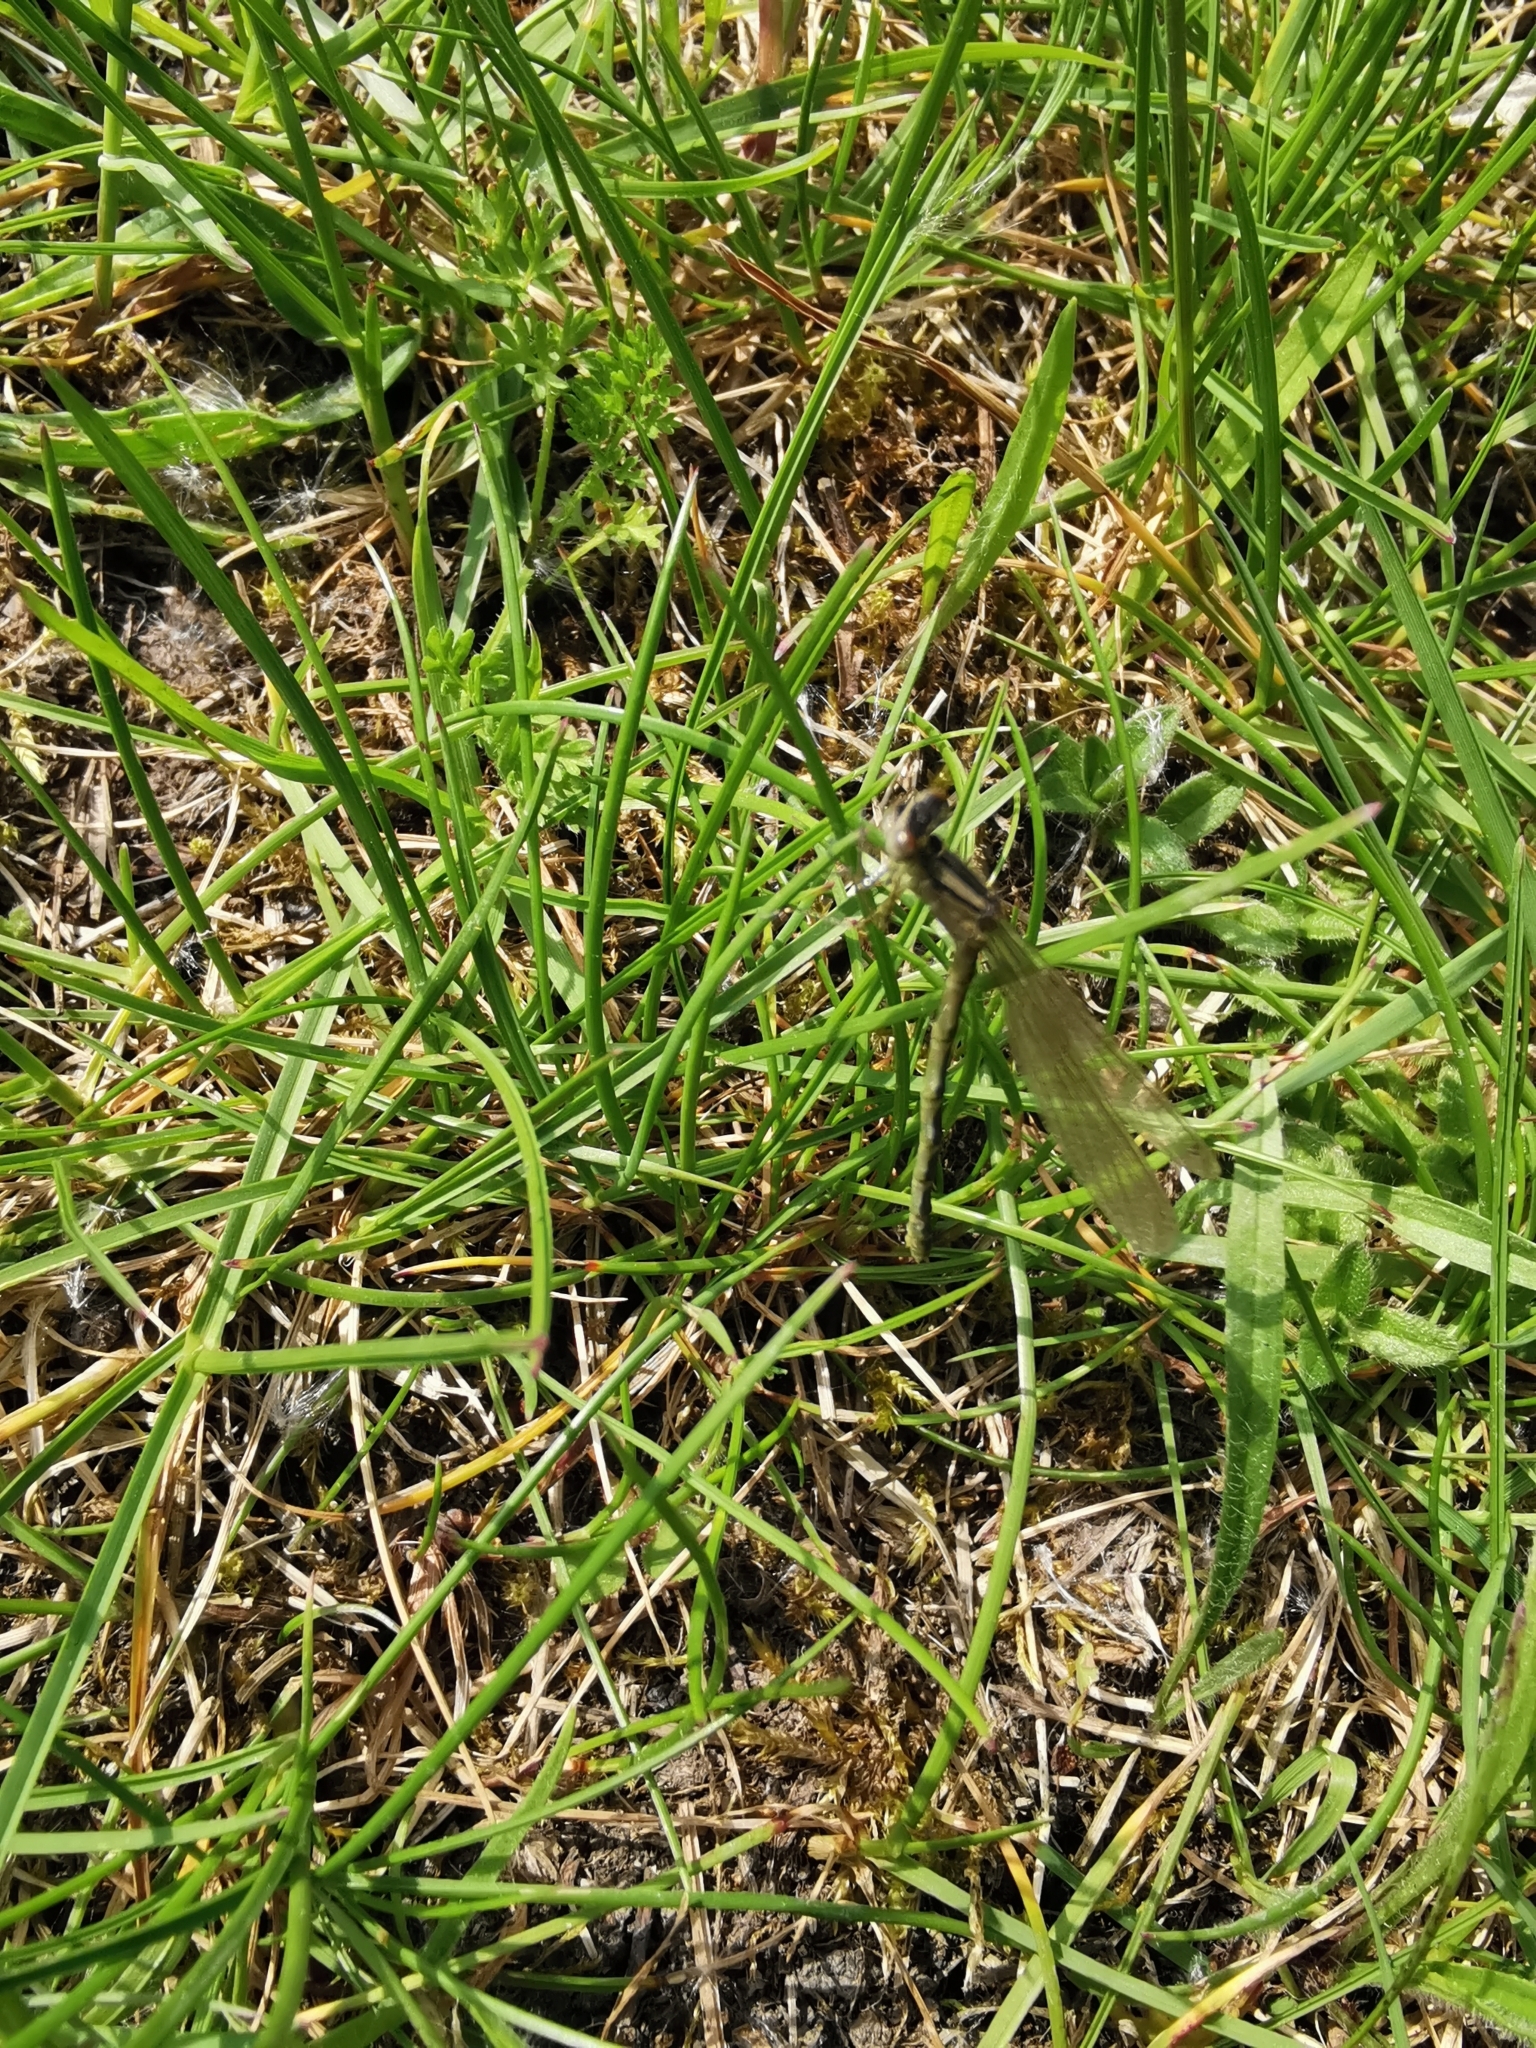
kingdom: Animalia
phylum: Arthropoda
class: Insecta
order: Odonata
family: Coenagrionidae
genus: Enallagma
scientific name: Enallagma cyathigerum
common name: Common blue damselfly
